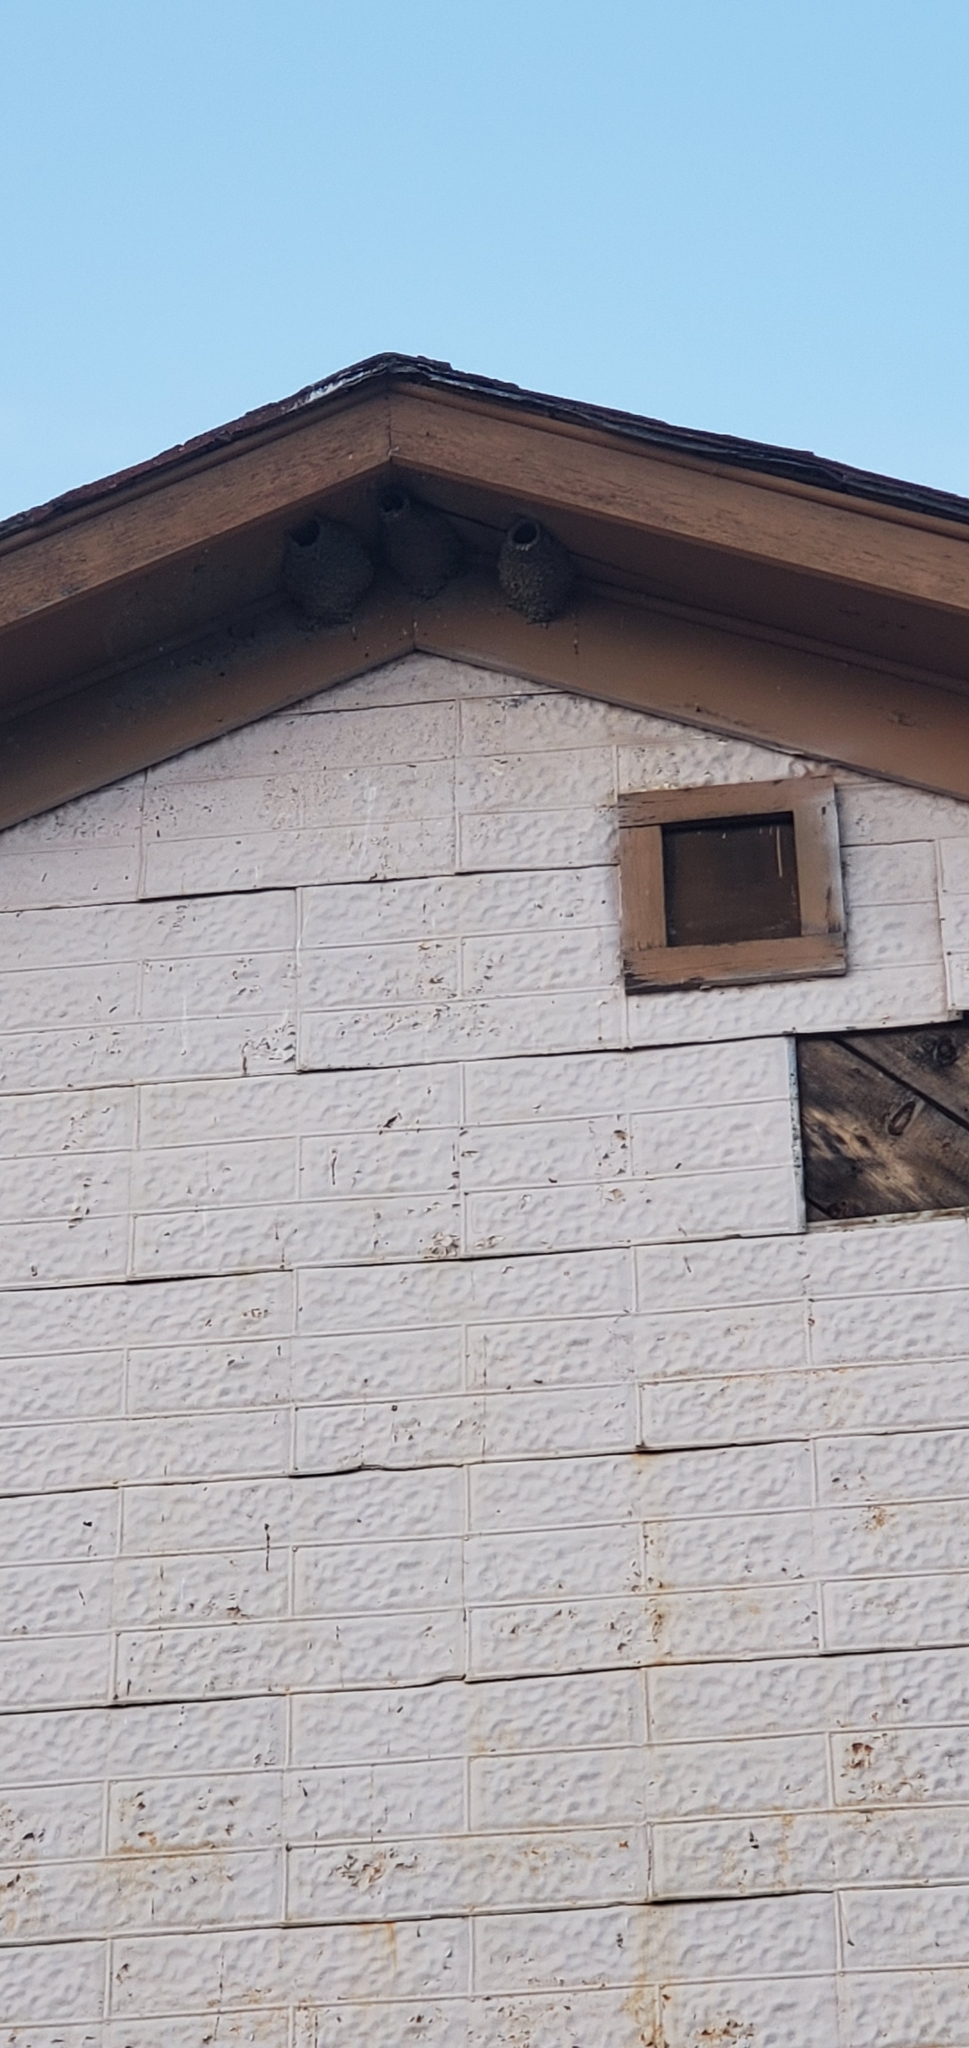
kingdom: Animalia
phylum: Chordata
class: Aves
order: Passeriformes
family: Hirundinidae
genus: Petrochelidon
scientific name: Petrochelidon pyrrhonota
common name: American cliff swallow
